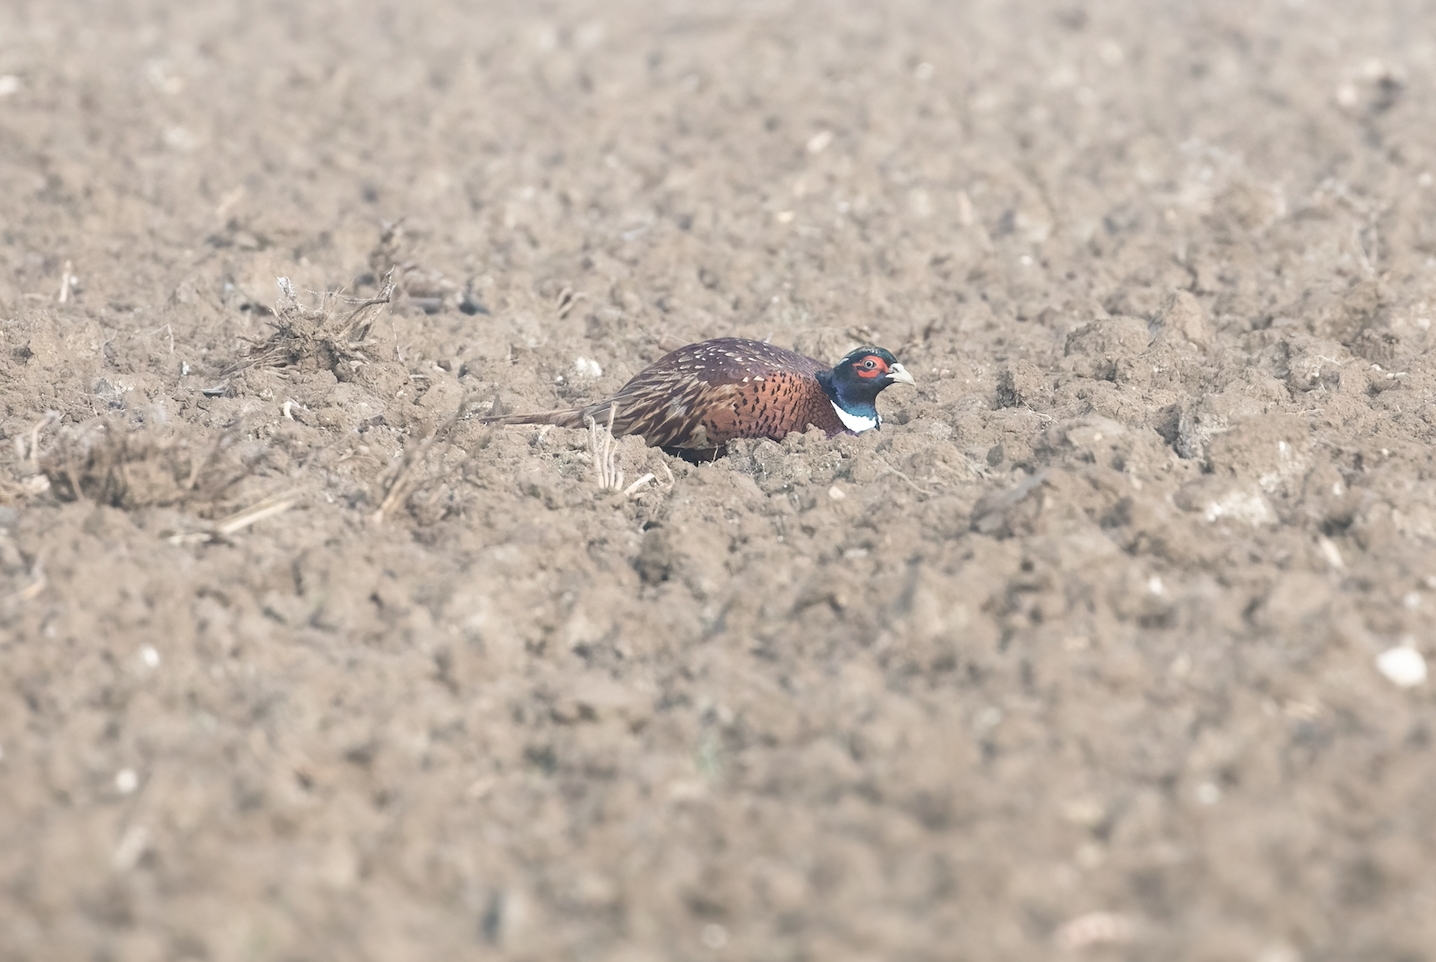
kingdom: Animalia
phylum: Chordata
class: Aves
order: Galliformes
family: Phasianidae
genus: Phasianus
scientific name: Phasianus colchicus
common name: Common pheasant
